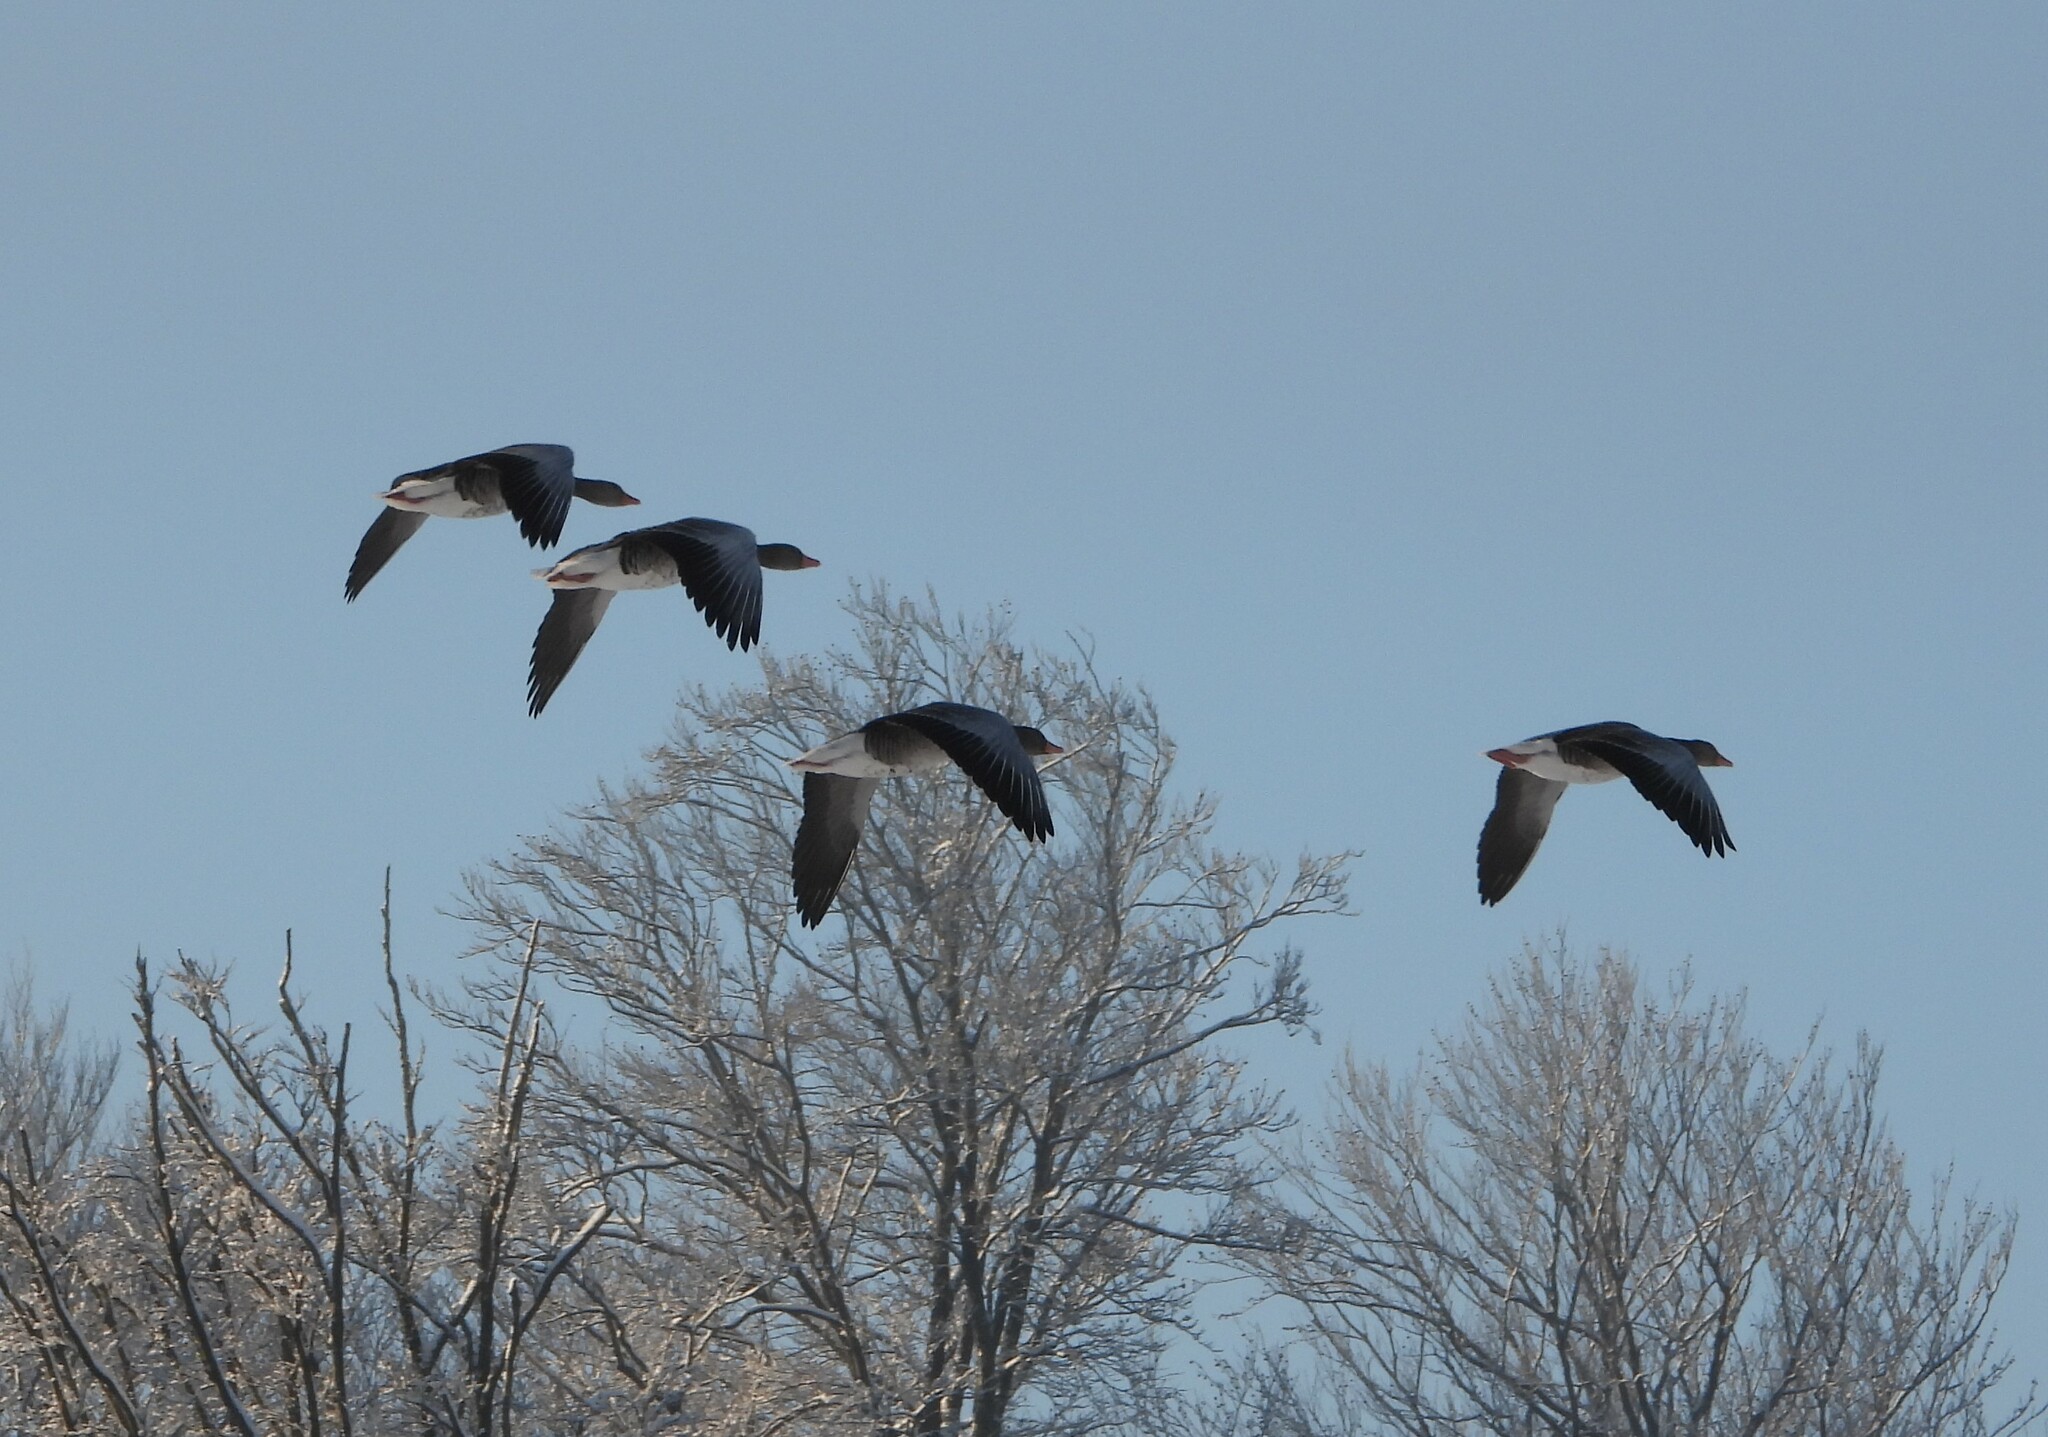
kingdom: Animalia
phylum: Chordata
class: Aves
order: Anseriformes
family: Anatidae
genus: Anser
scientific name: Anser anser
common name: Greylag goose
